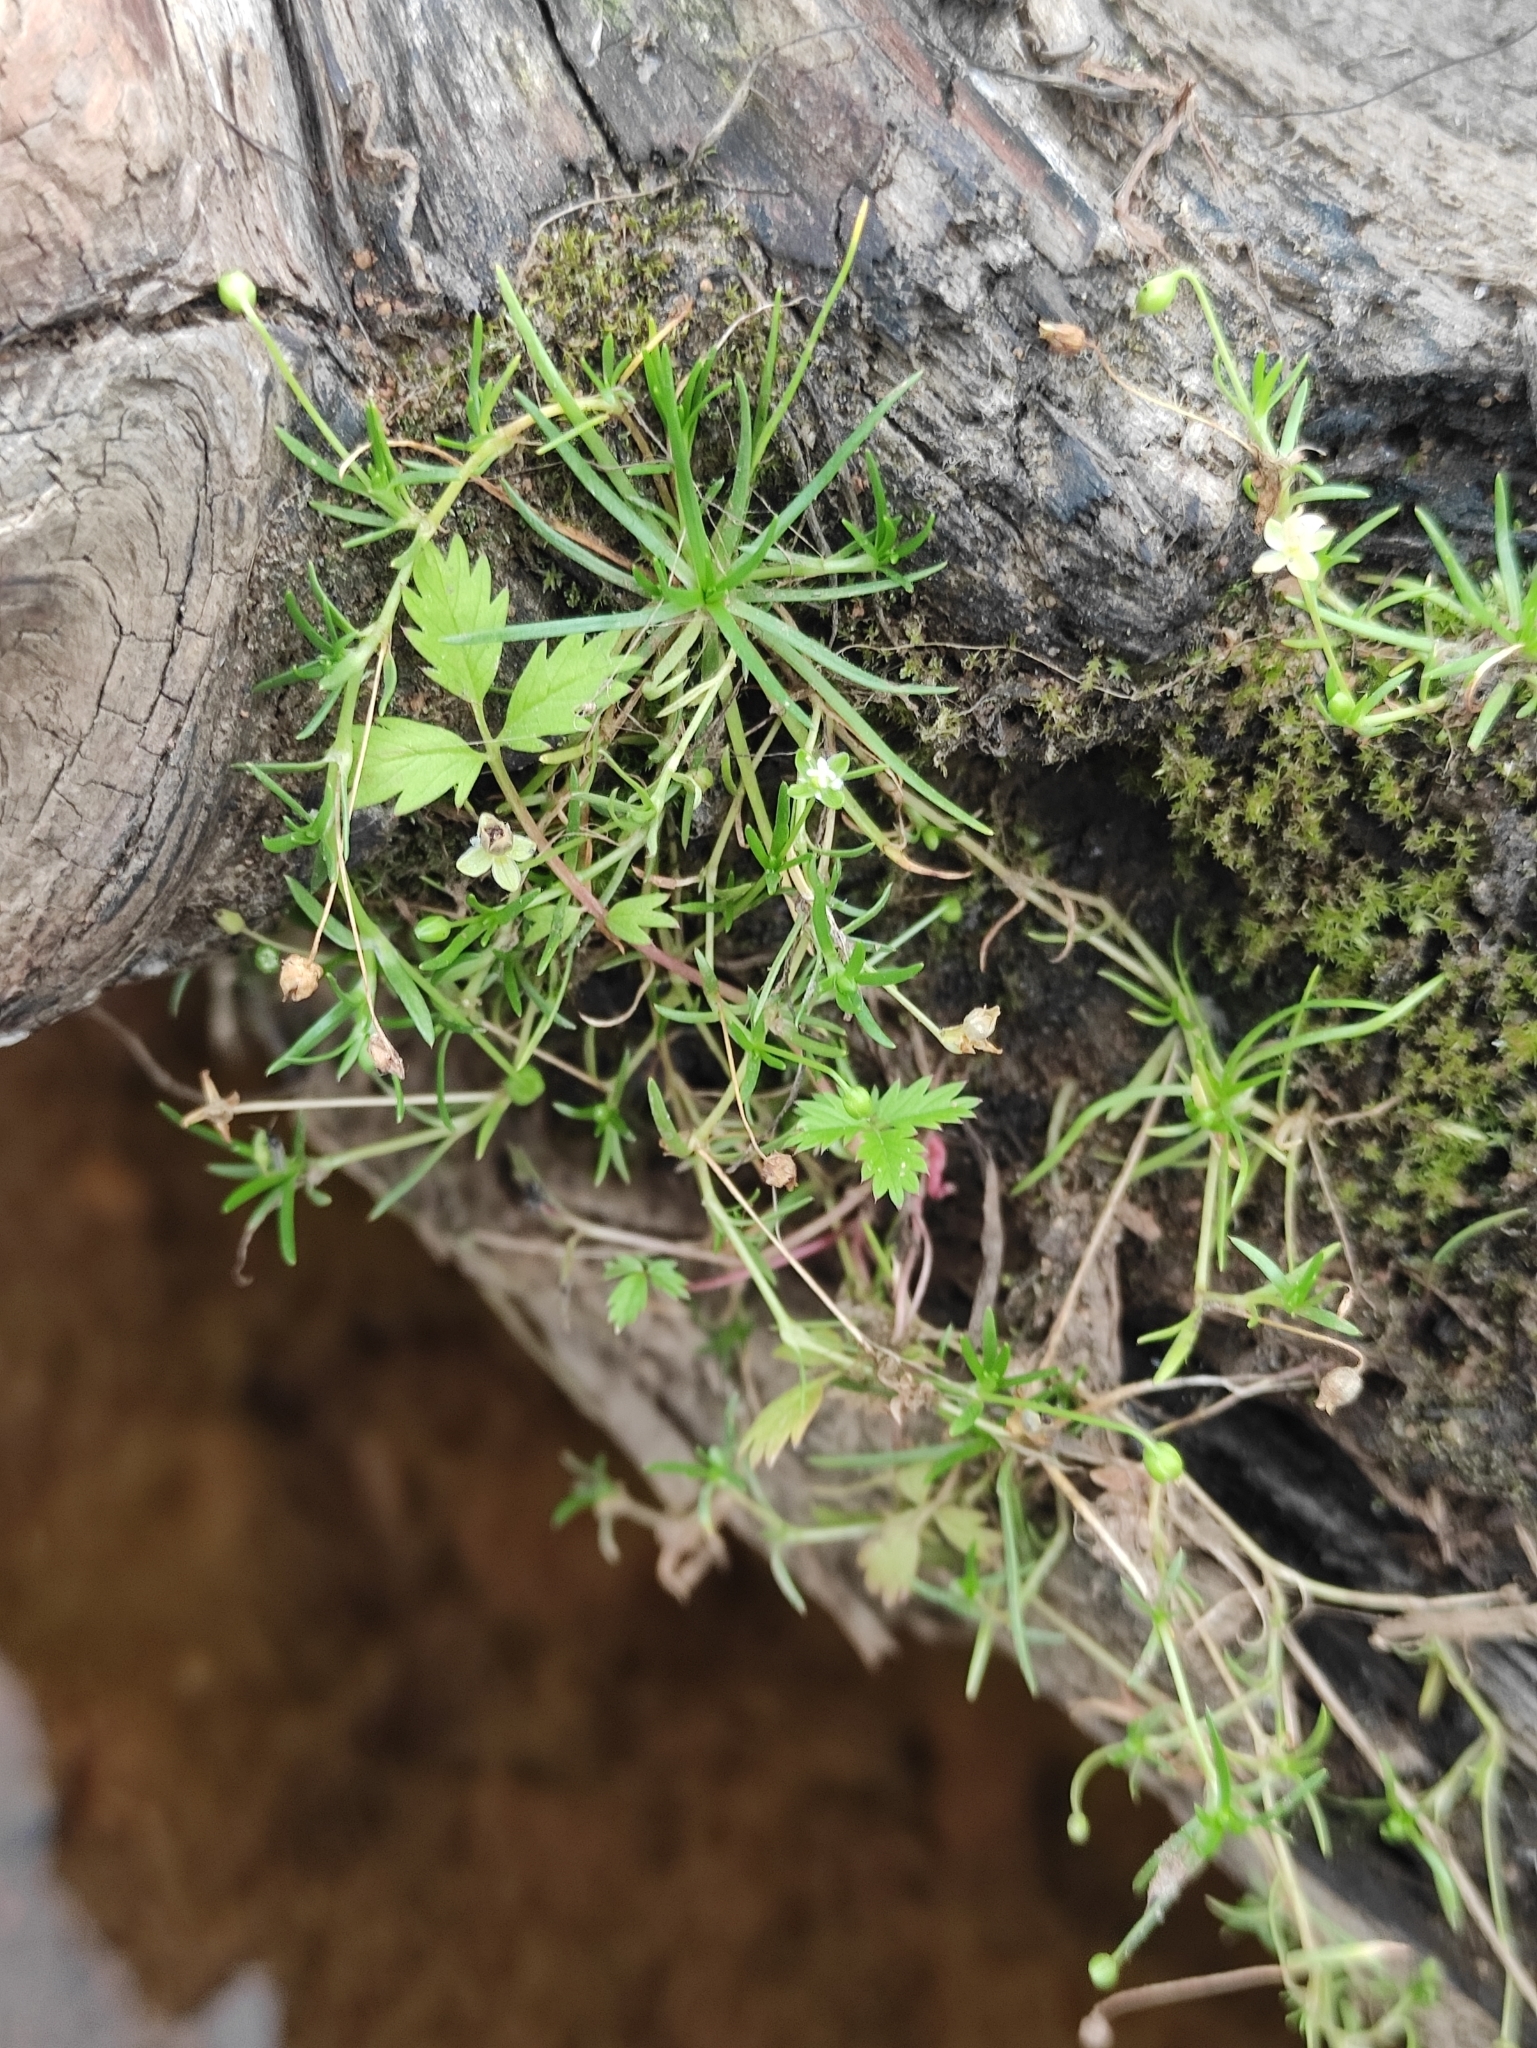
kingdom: Plantae
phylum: Tracheophyta
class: Magnoliopsida
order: Caryophyllales
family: Caryophyllaceae
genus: Sagina
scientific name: Sagina procumbens
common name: Procumbent pearlwort
